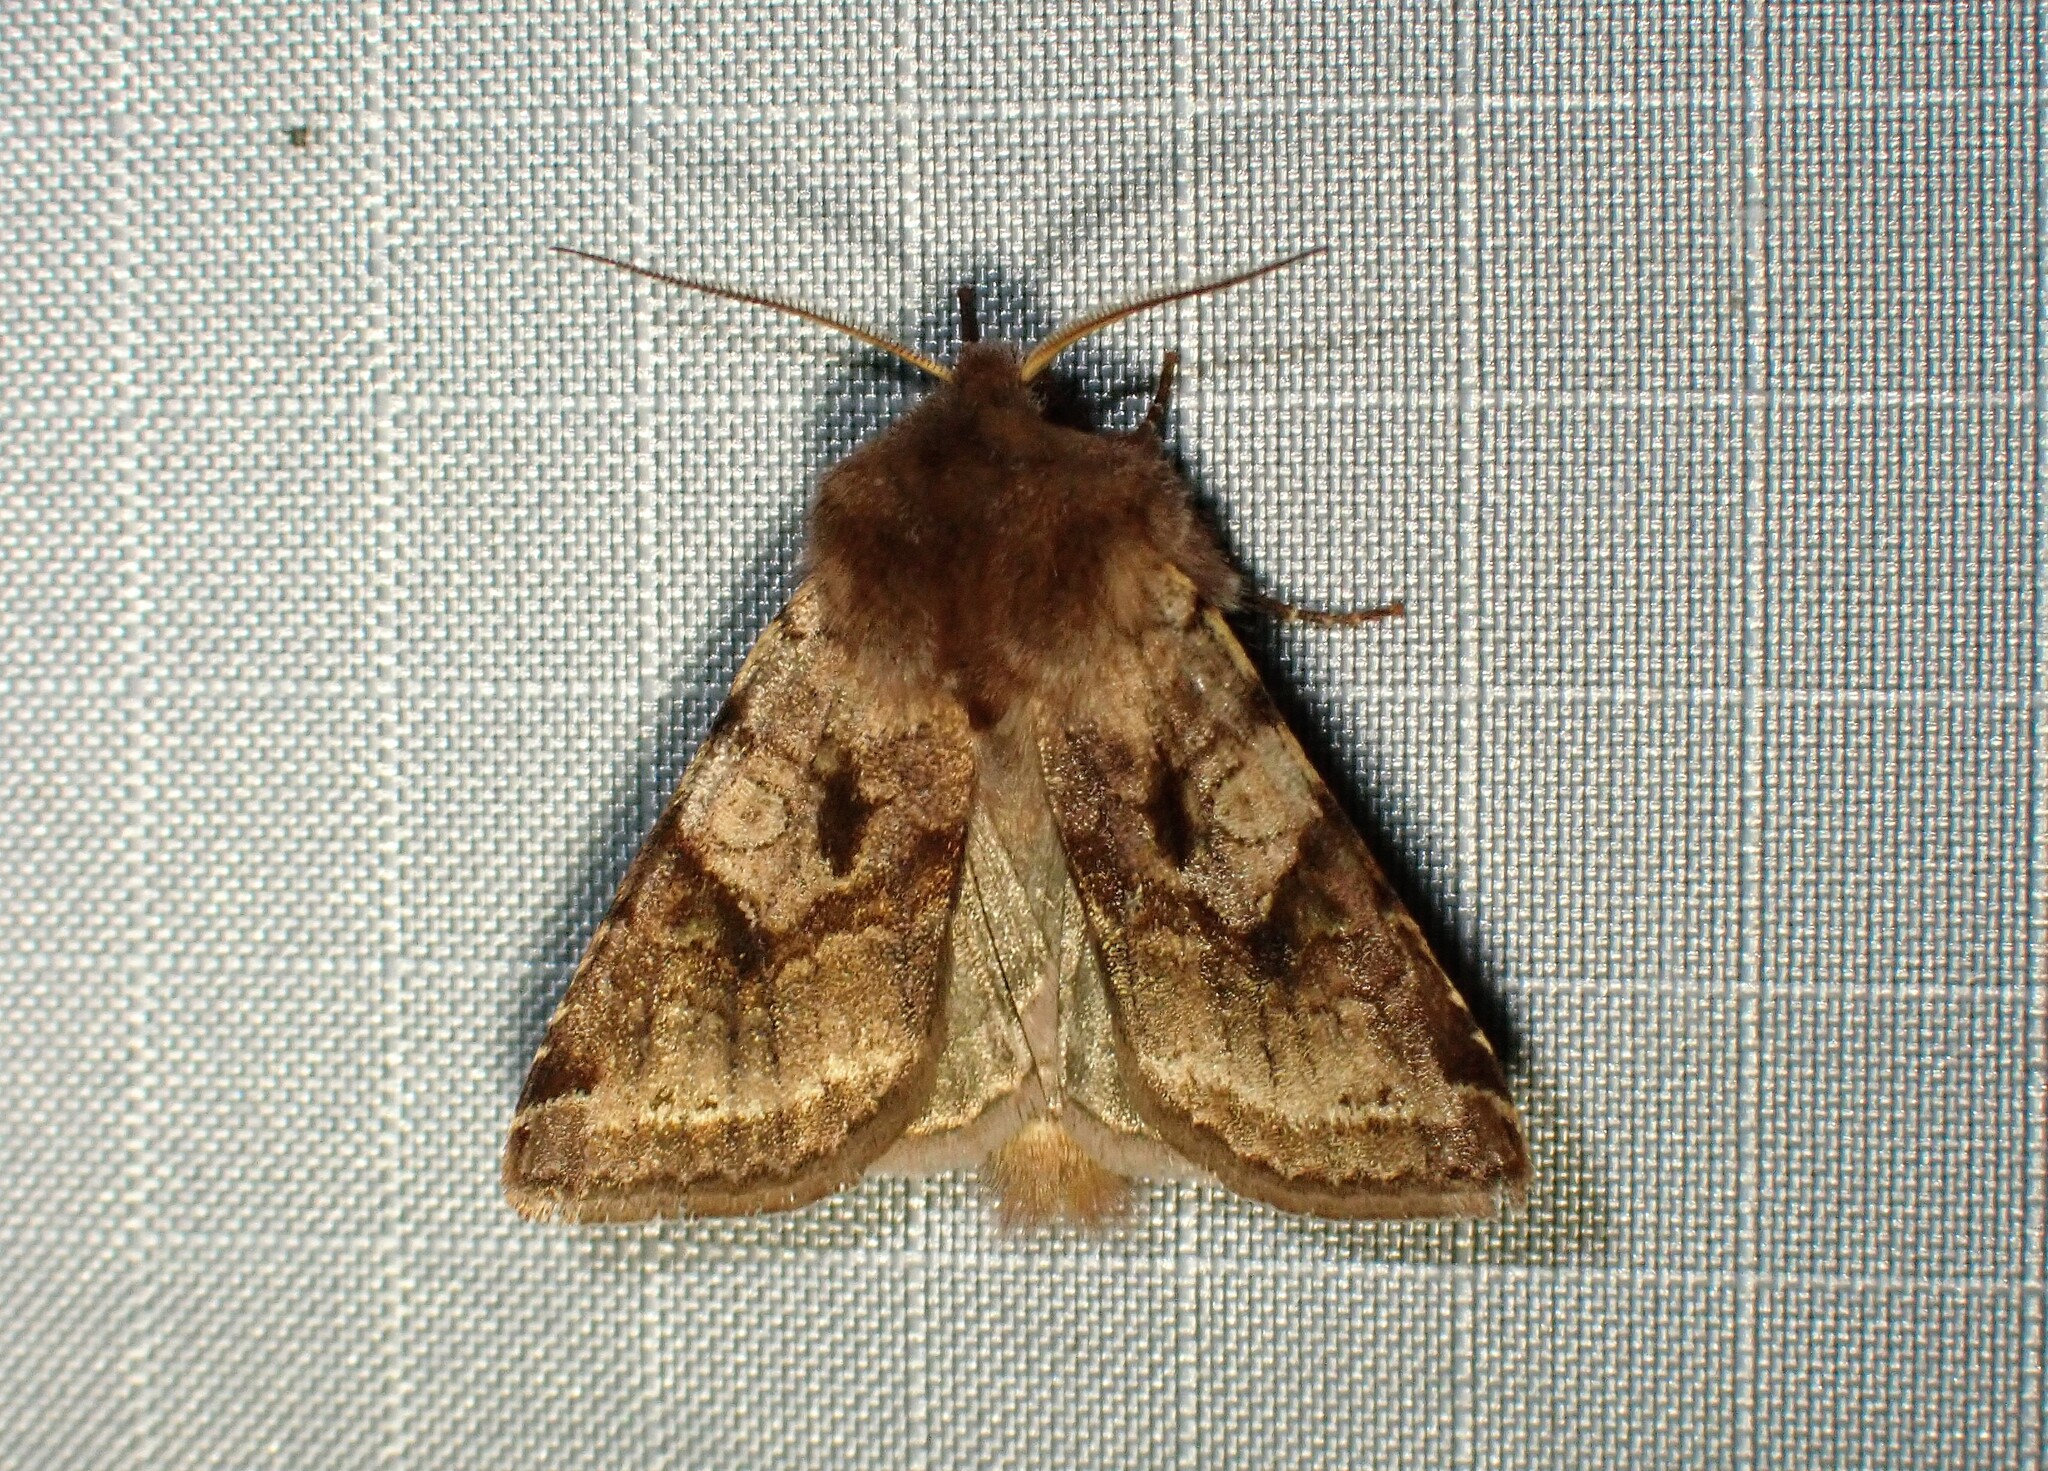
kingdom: Animalia
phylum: Arthropoda
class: Insecta
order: Lepidoptera
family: Noctuidae
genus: Cerastis
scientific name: Cerastis salicarum
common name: Willow dart
